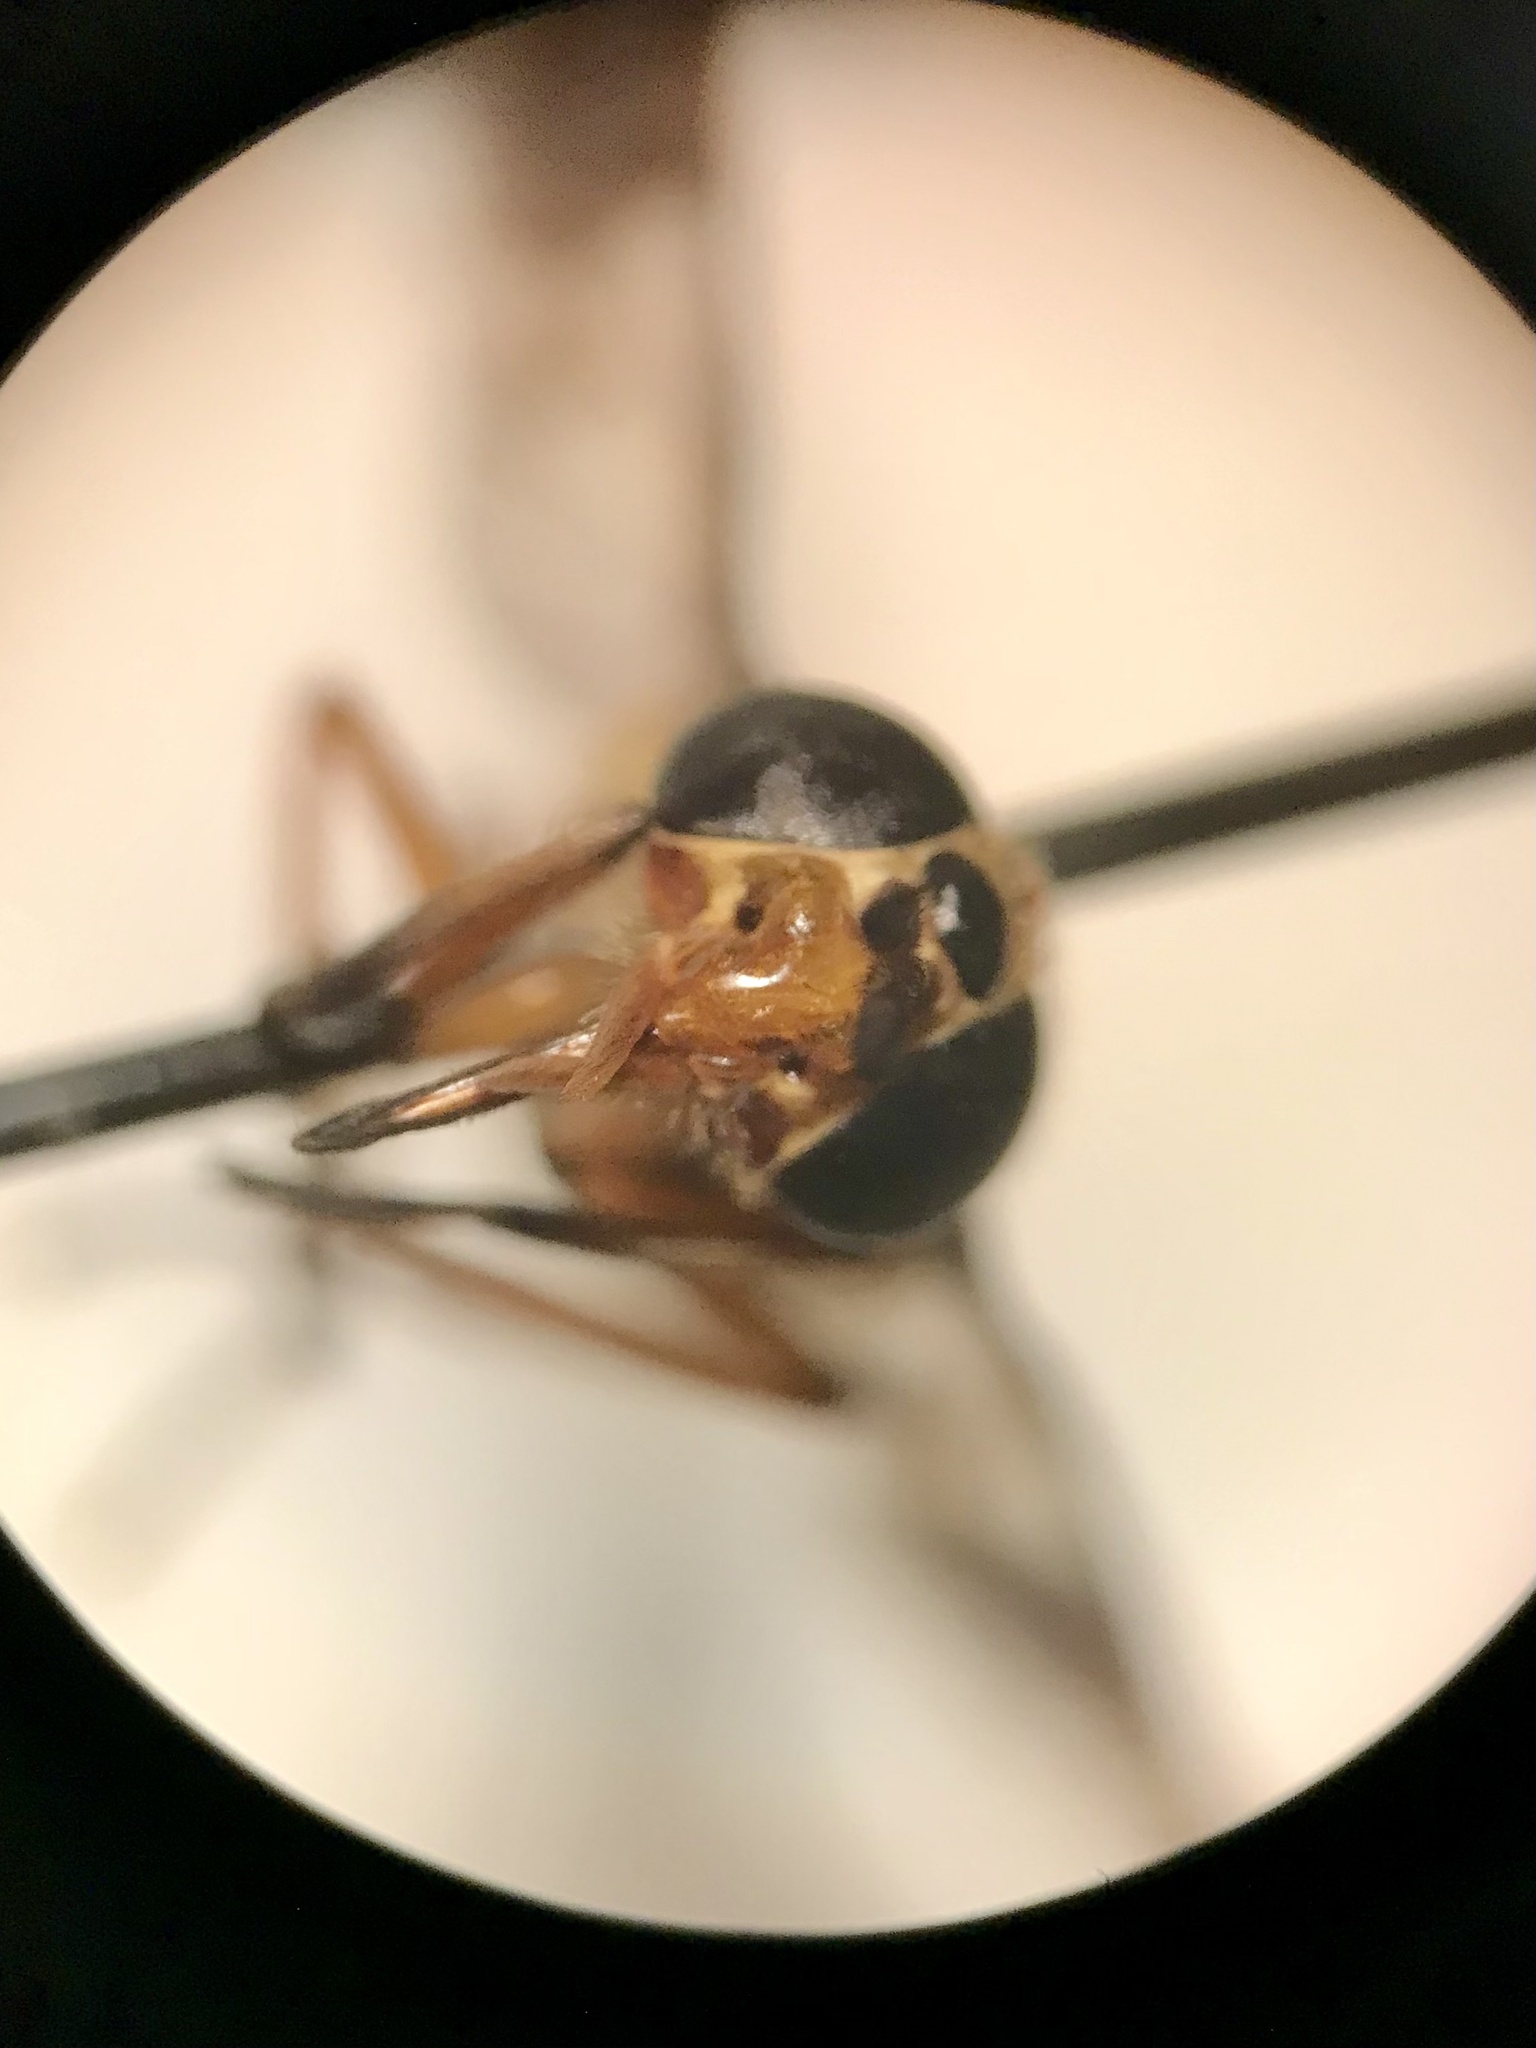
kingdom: Animalia
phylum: Arthropoda
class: Insecta
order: Diptera
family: Tabanidae
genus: Chrysops
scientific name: Chrysops montanus
